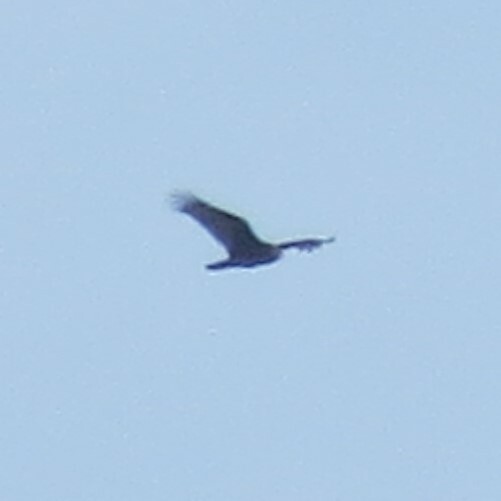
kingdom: Animalia
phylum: Chordata
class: Aves
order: Accipitriformes
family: Cathartidae
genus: Cathartes
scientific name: Cathartes aura
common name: Turkey vulture
